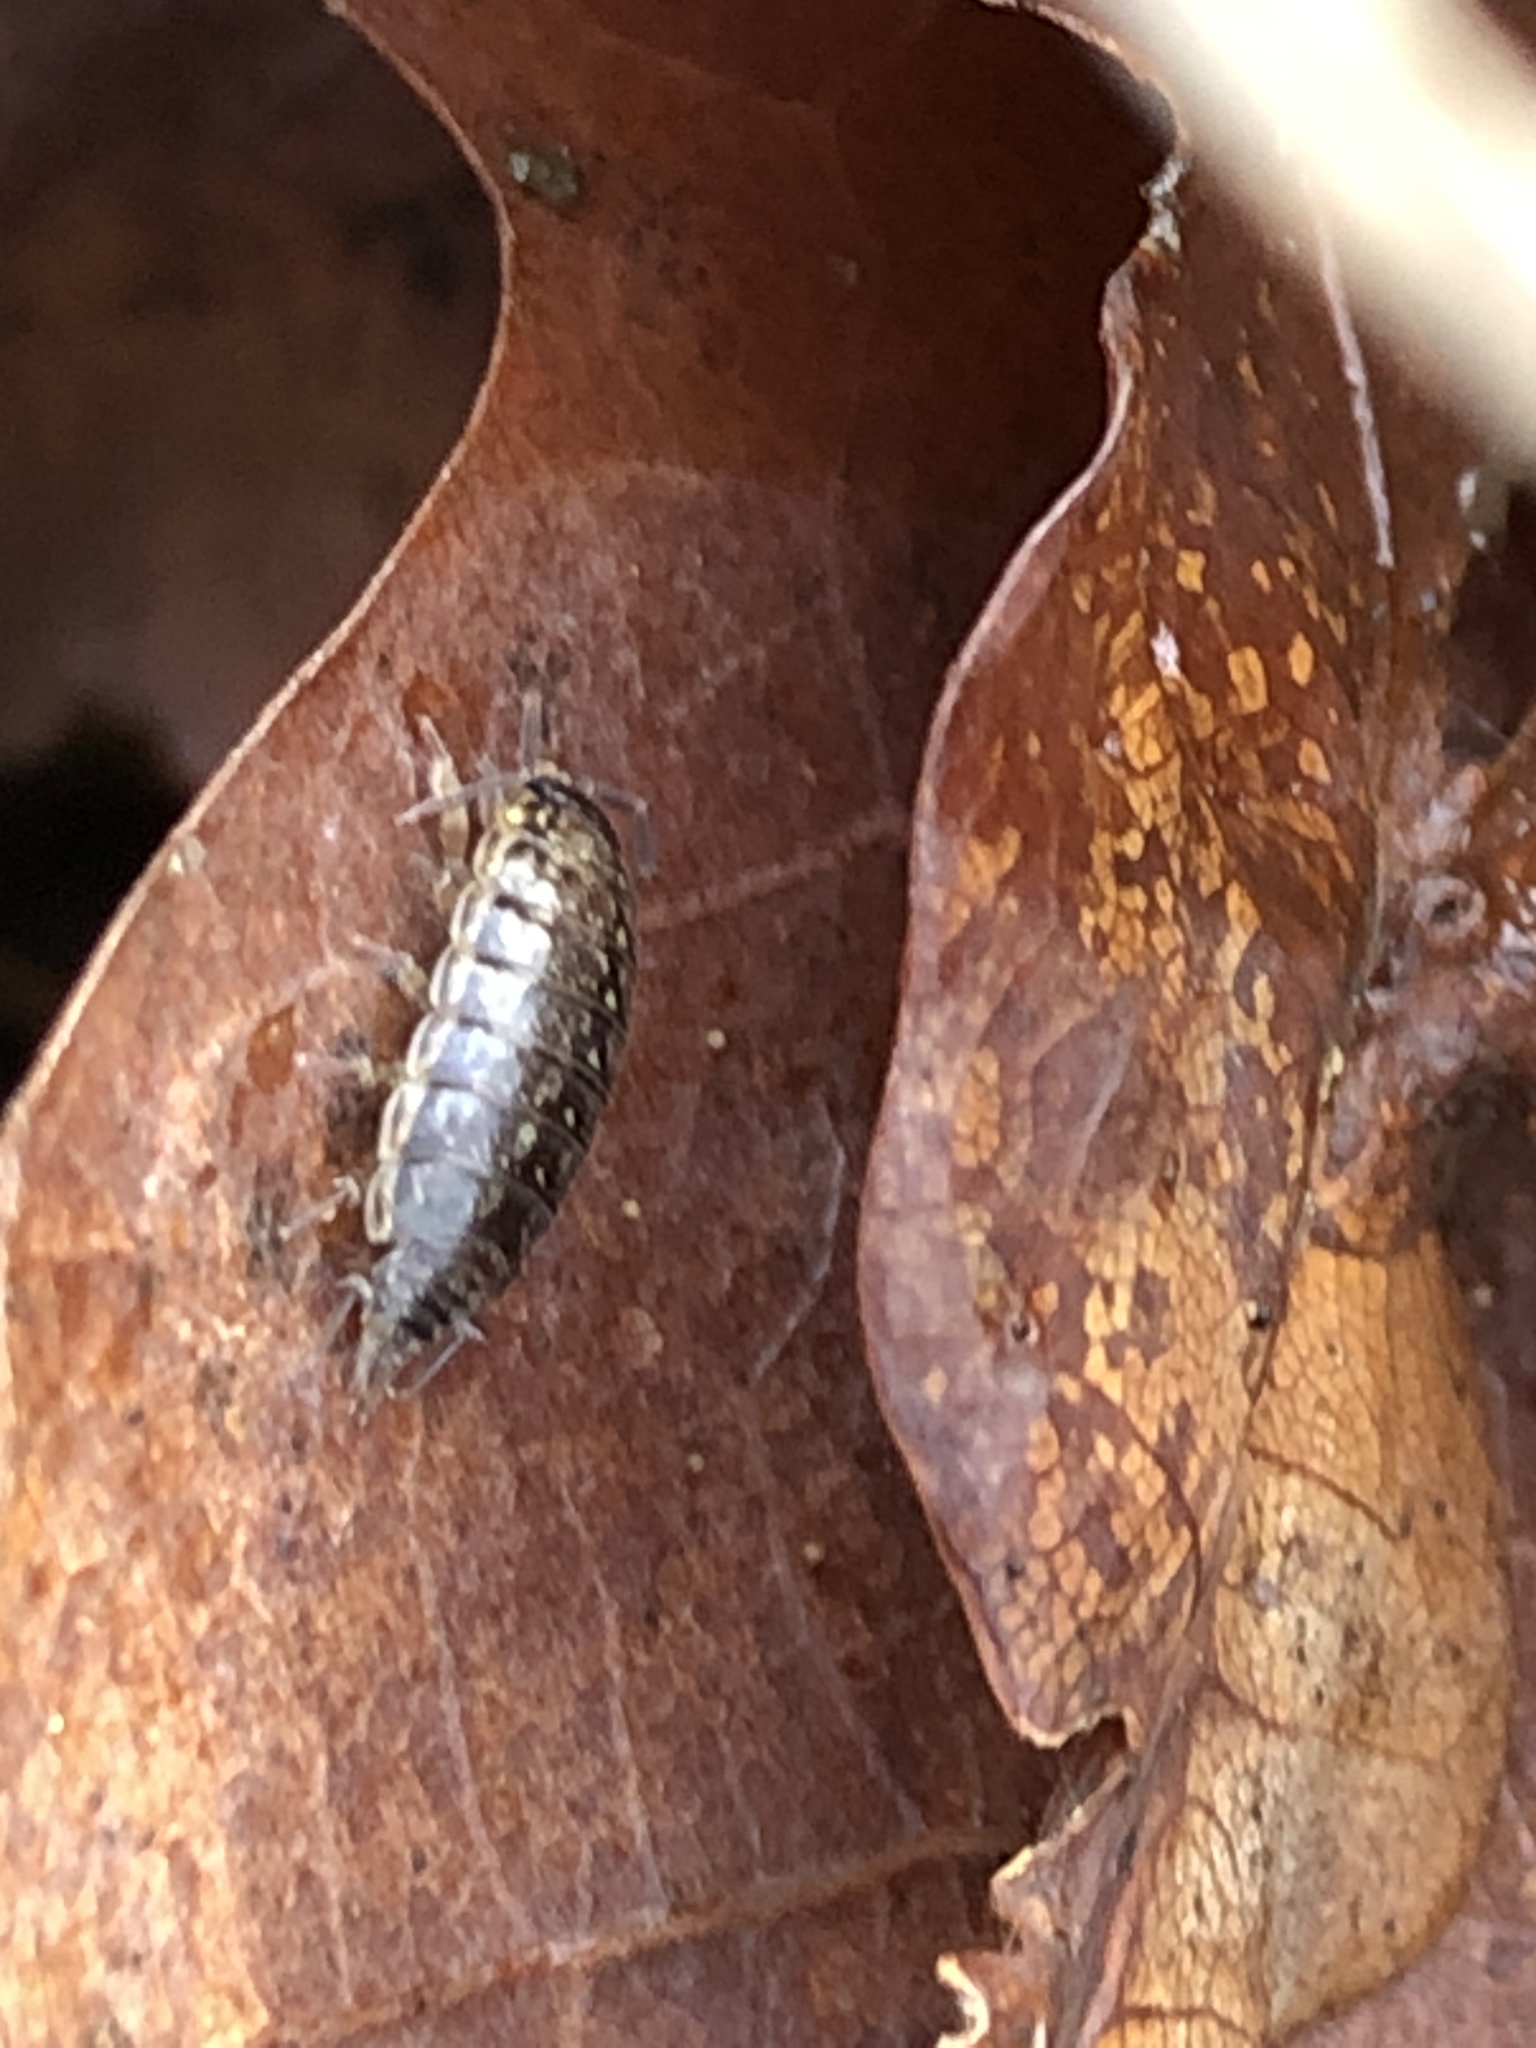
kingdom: Animalia
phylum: Arthropoda
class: Malacostraca
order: Isopoda
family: Philosciidae
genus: Philoscia
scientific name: Philoscia muscorum
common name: Common striped woodlouse
